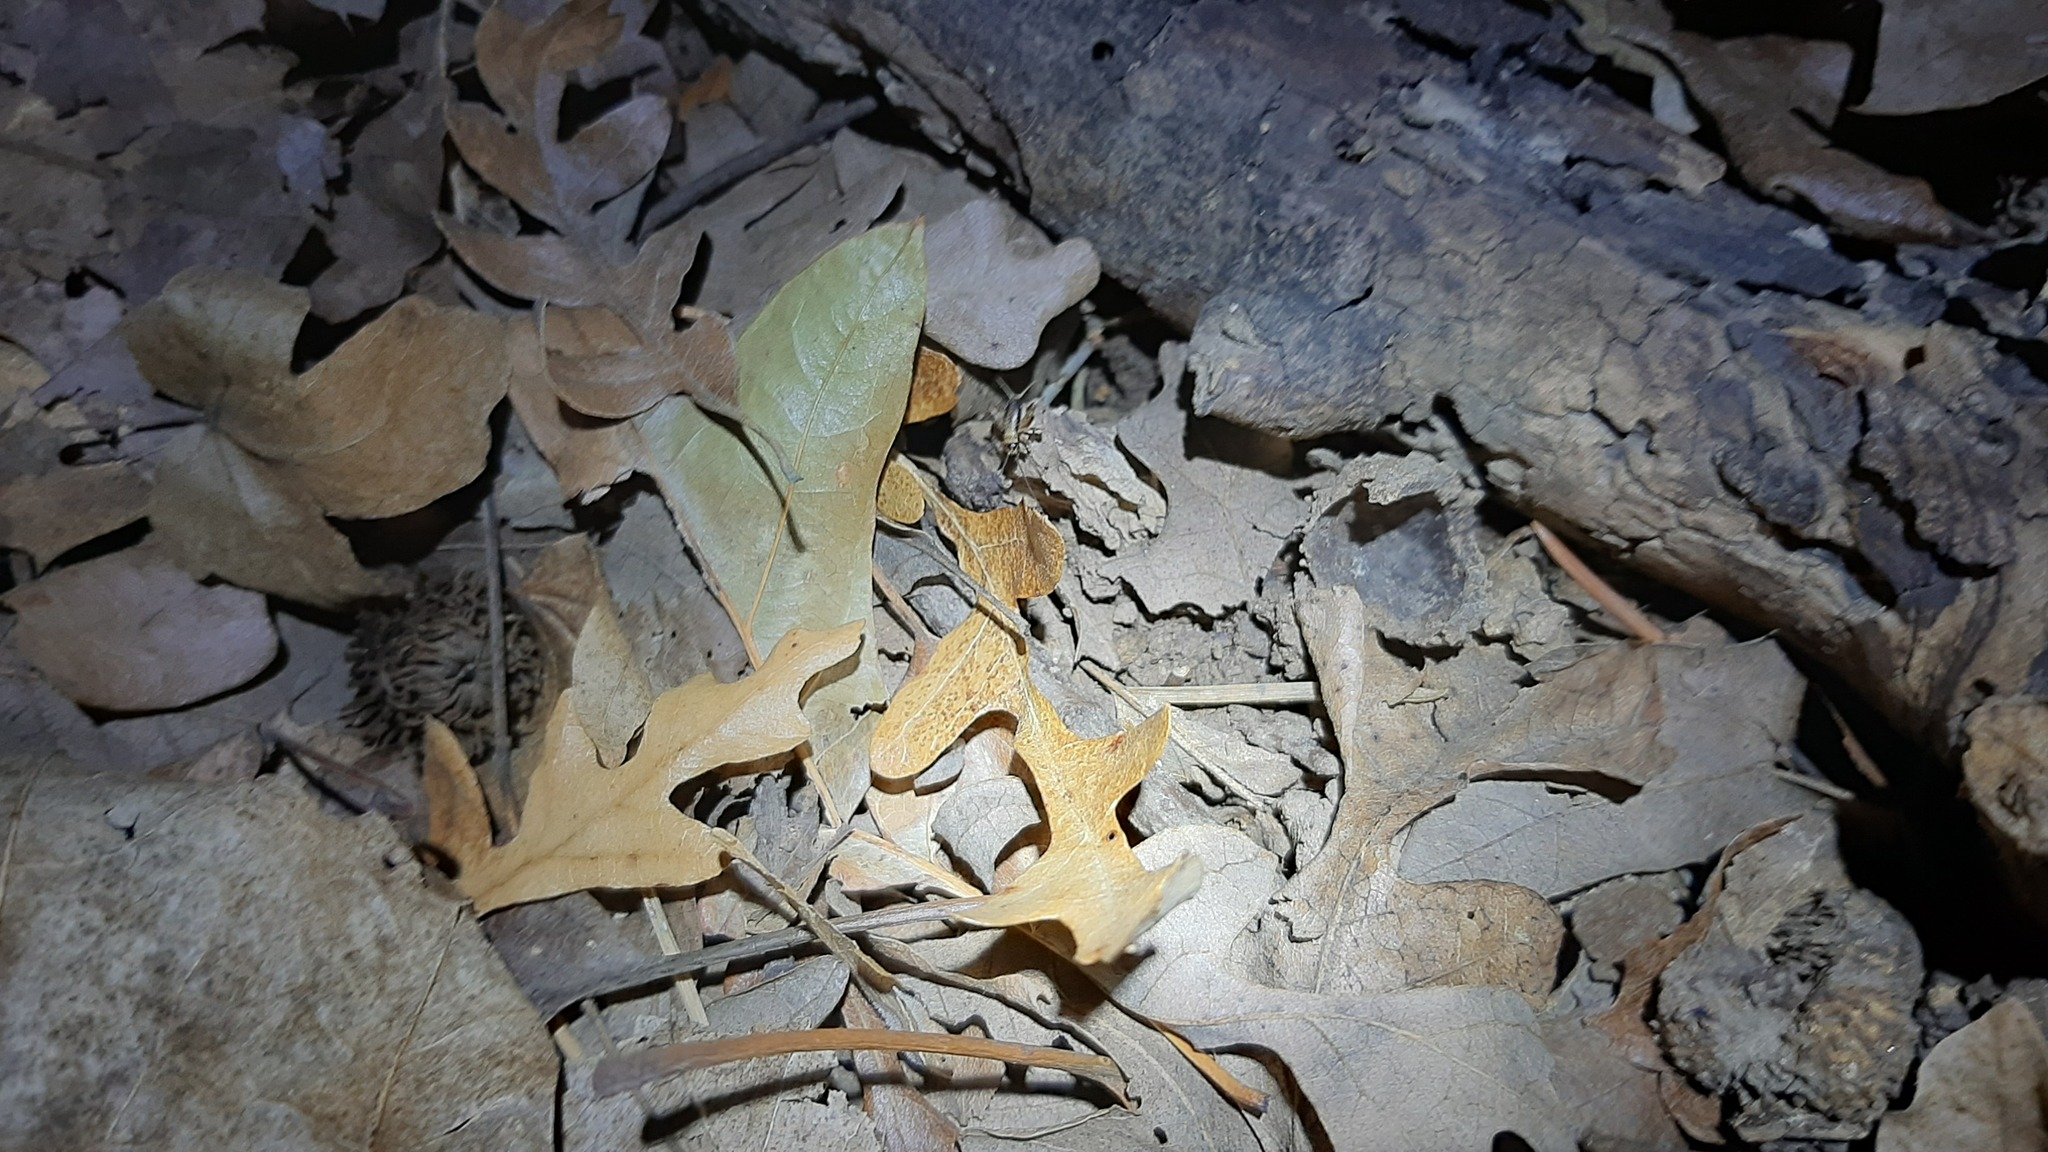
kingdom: Animalia
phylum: Arthropoda
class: Insecta
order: Orthoptera
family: Trigonidiidae
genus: Nemobius
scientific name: Nemobius sylvestris
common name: Wood-cricket
